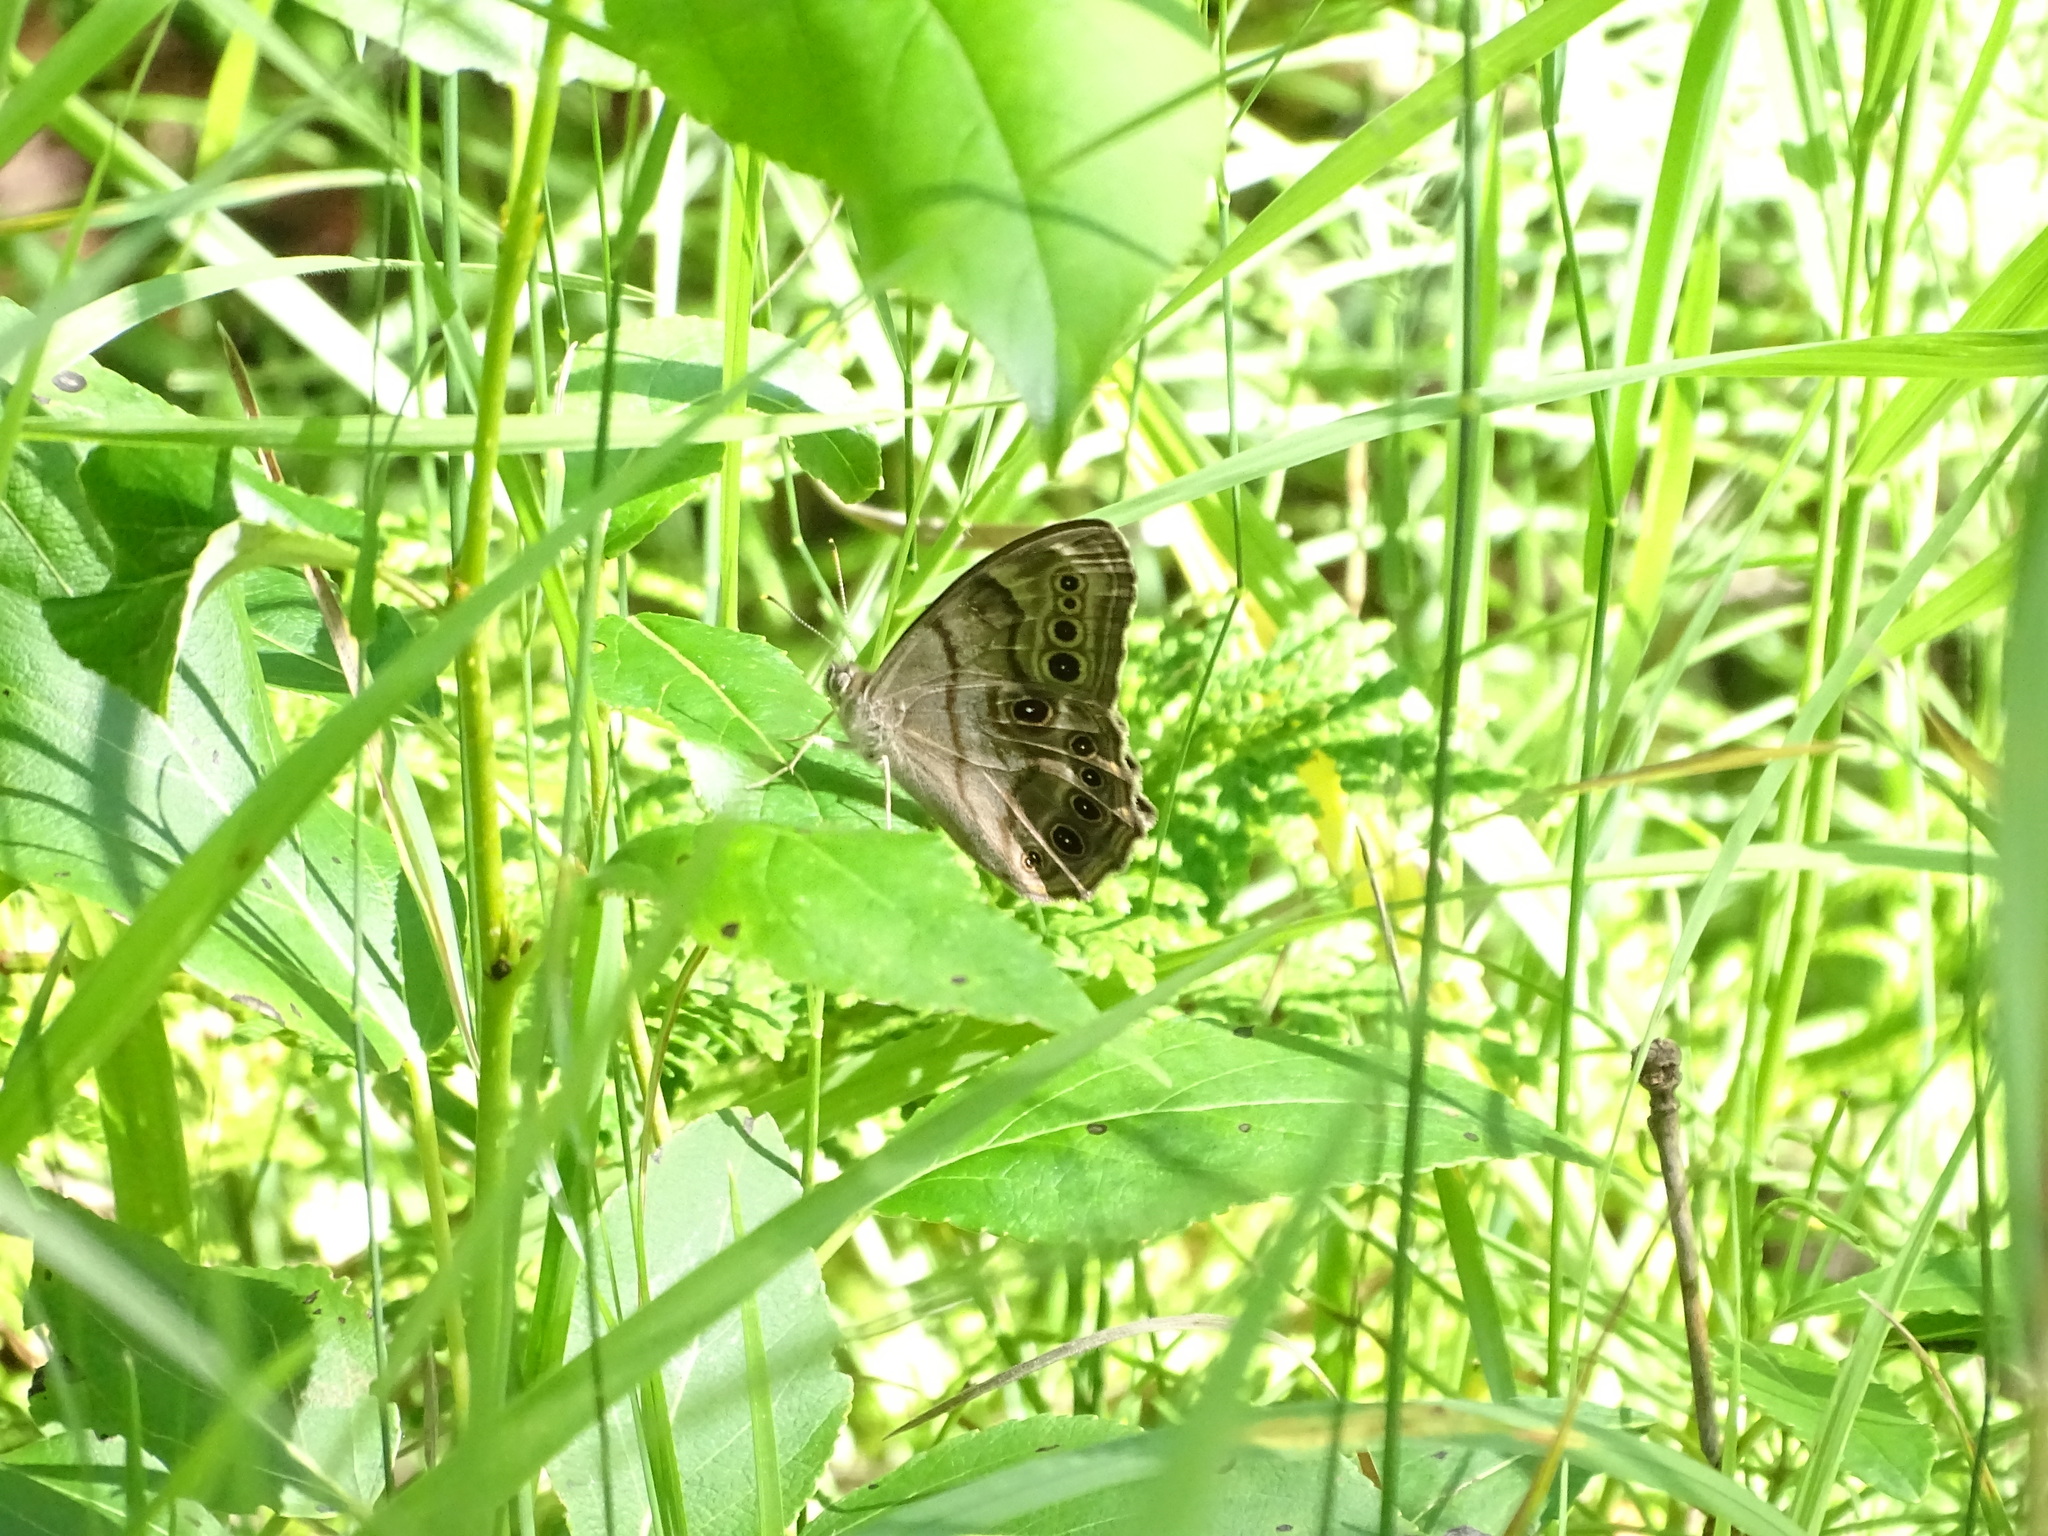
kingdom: Animalia
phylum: Arthropoda
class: Insecta
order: Lepidoptera
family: Nymphalidae
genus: Lethe
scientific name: Lethe anthedon
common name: Northern pearly-eye
